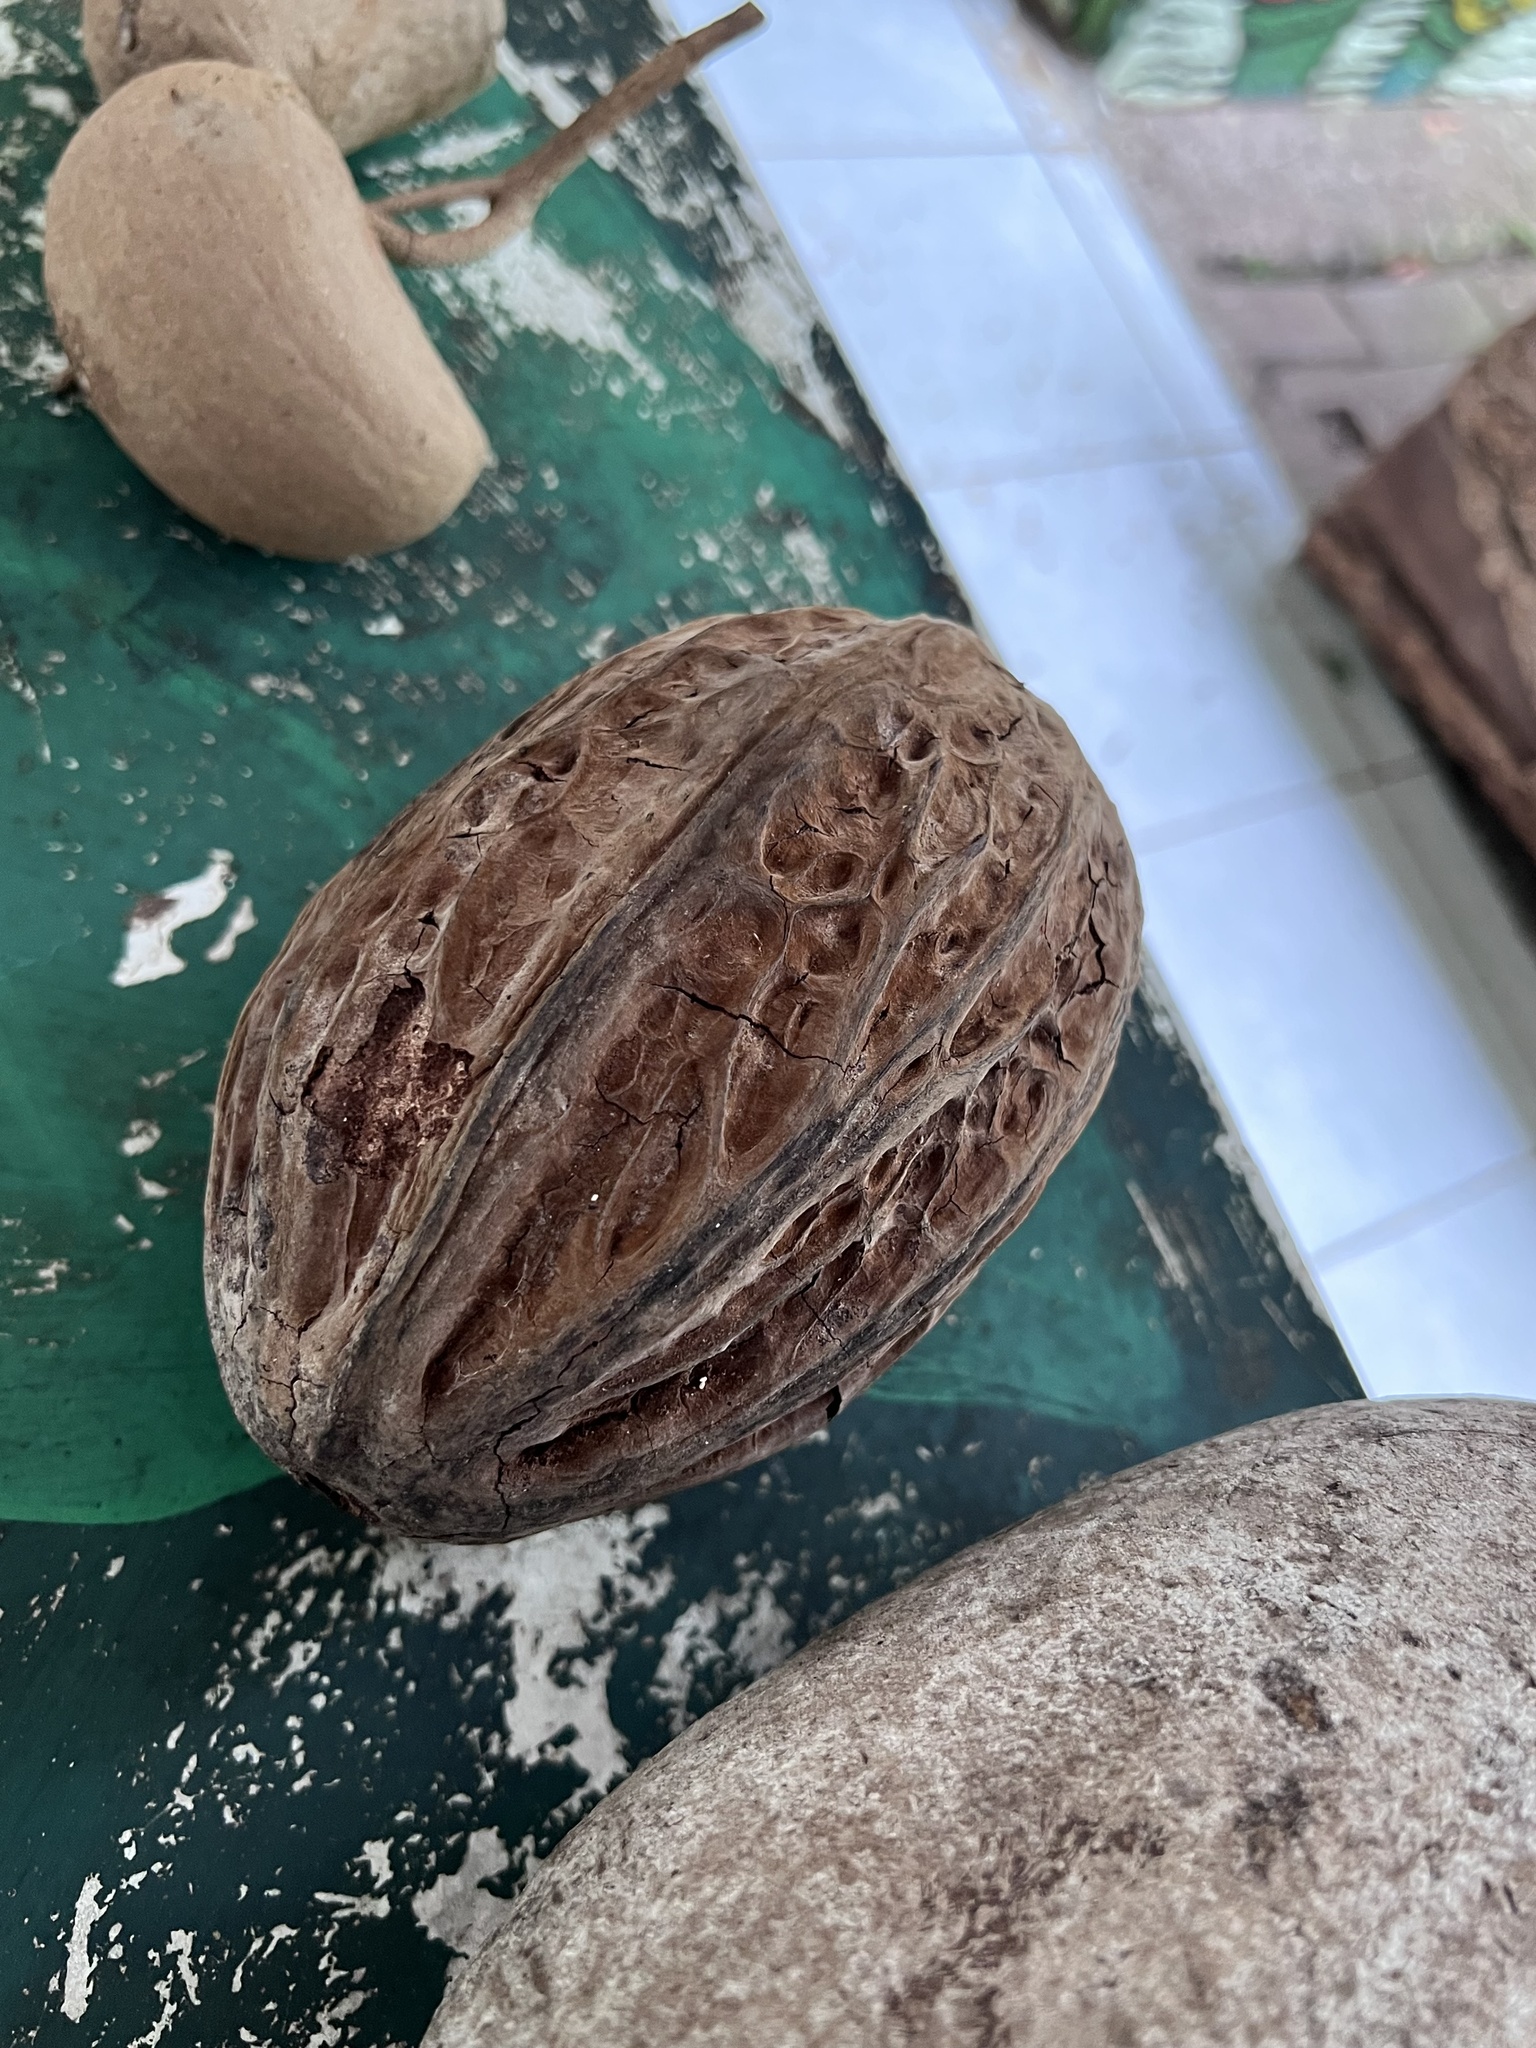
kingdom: Plantae
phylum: Tracheophyta
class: Magnoliopsida
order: Malvales
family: Malvaceae
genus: Theobroma
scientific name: Theobroma bicolor
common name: Macambo tree
